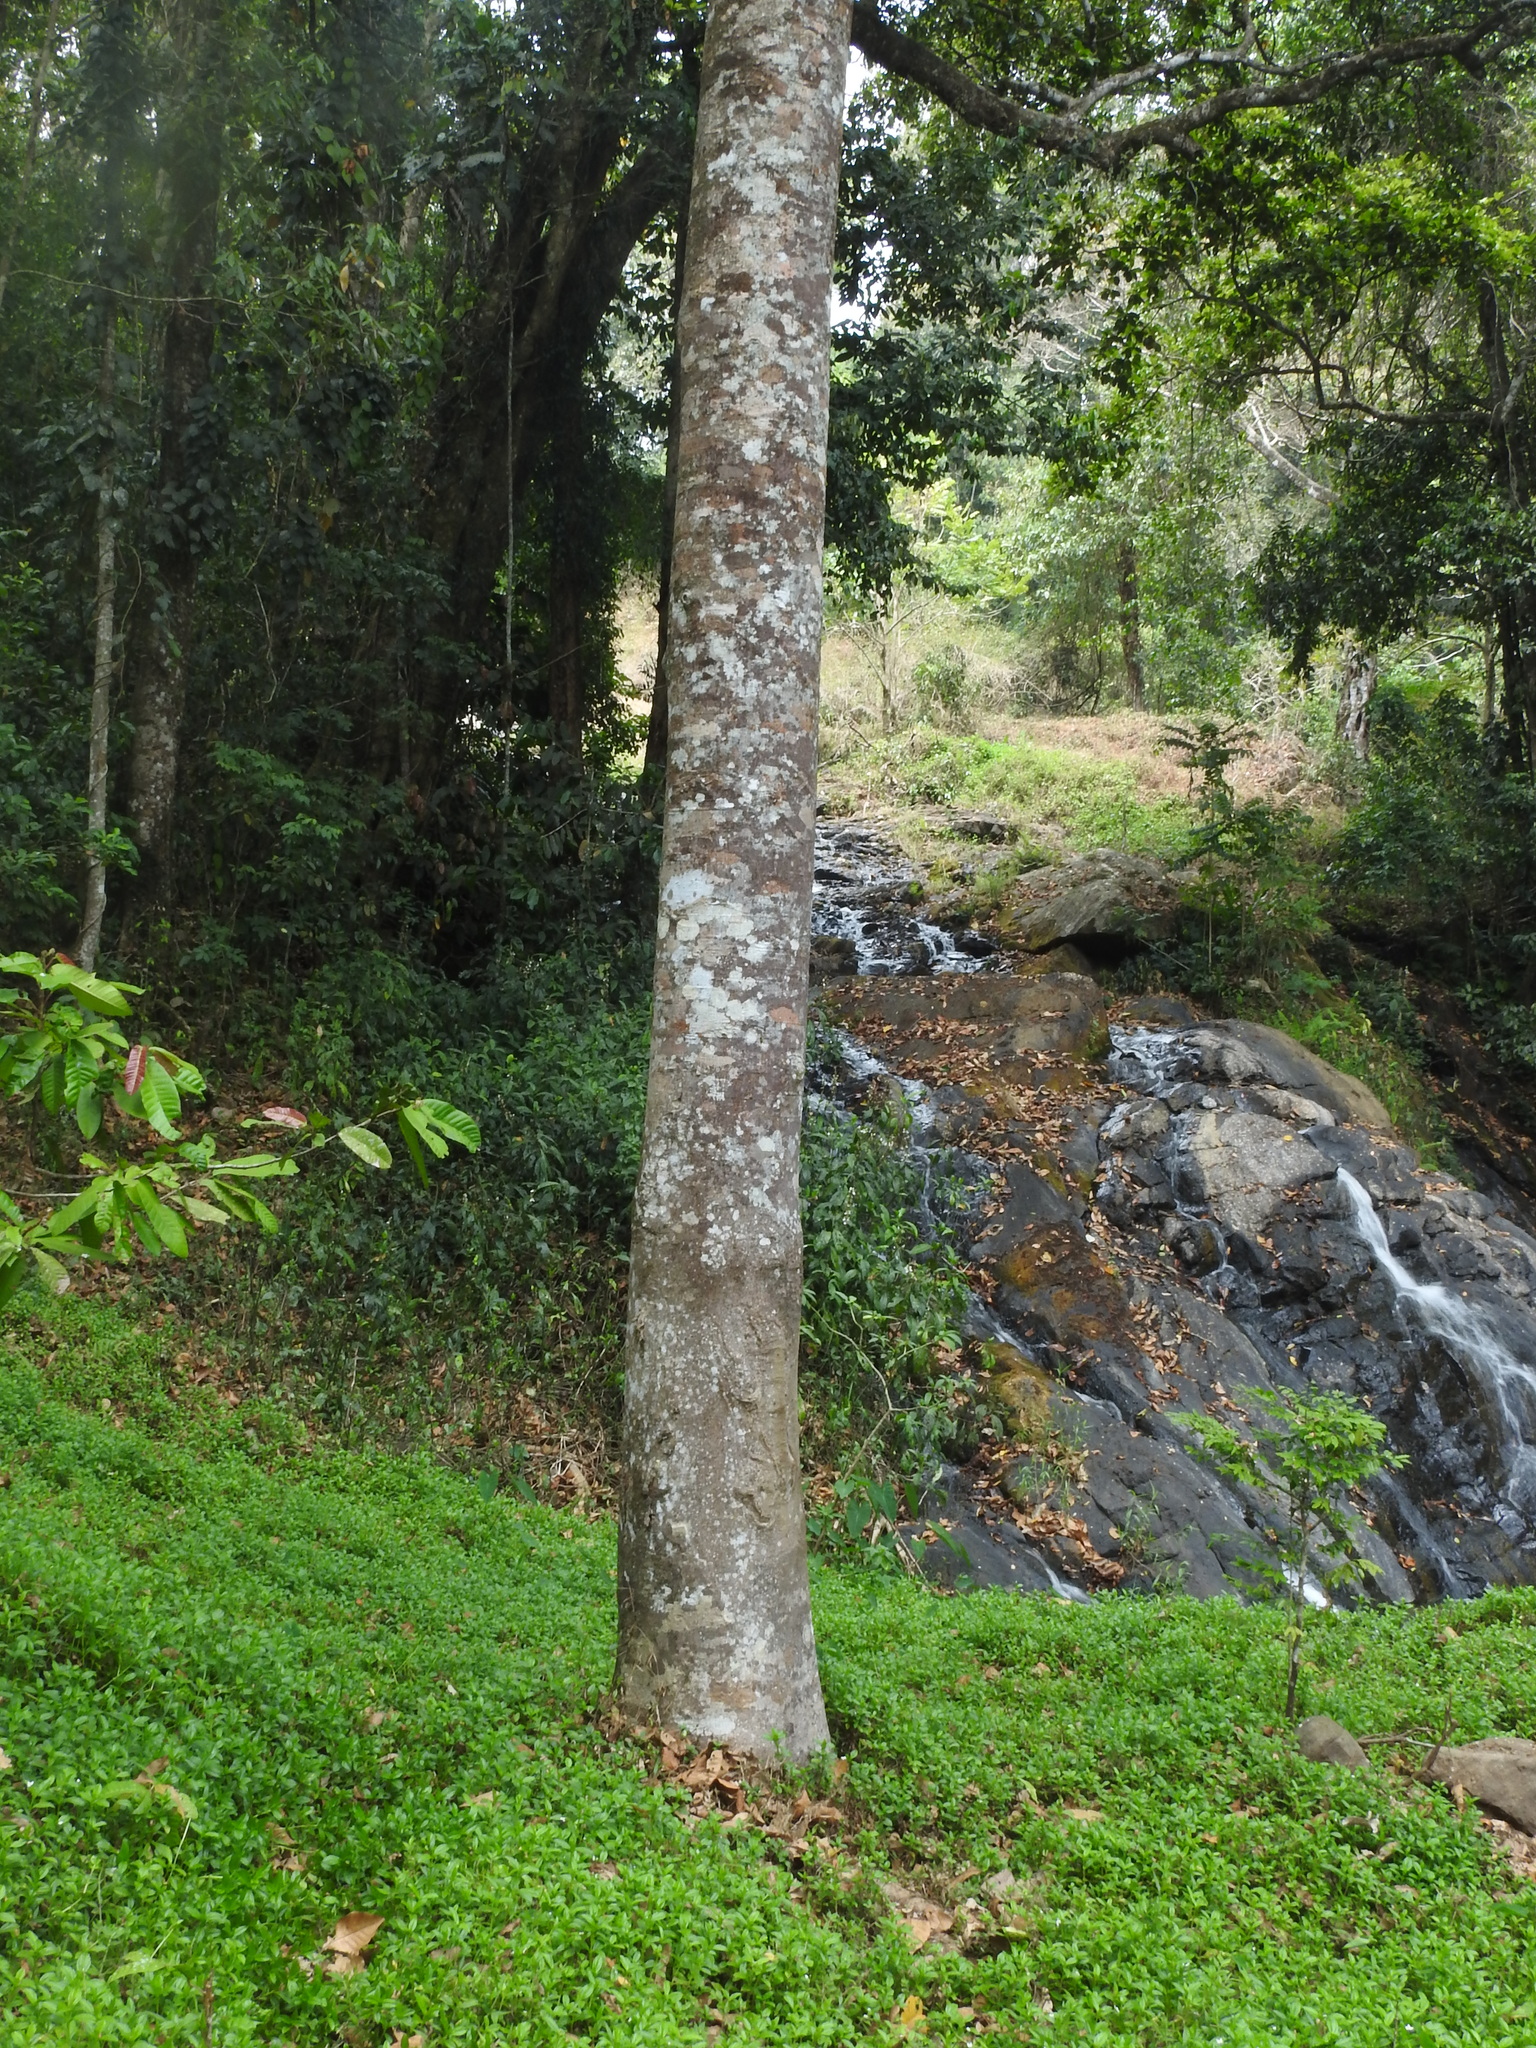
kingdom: Plantae
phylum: Tracheophyta
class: Magnoliopsida
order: Malvales
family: Dipterocarpaceae
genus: Vateria
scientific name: Vateria indica
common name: White dammar
